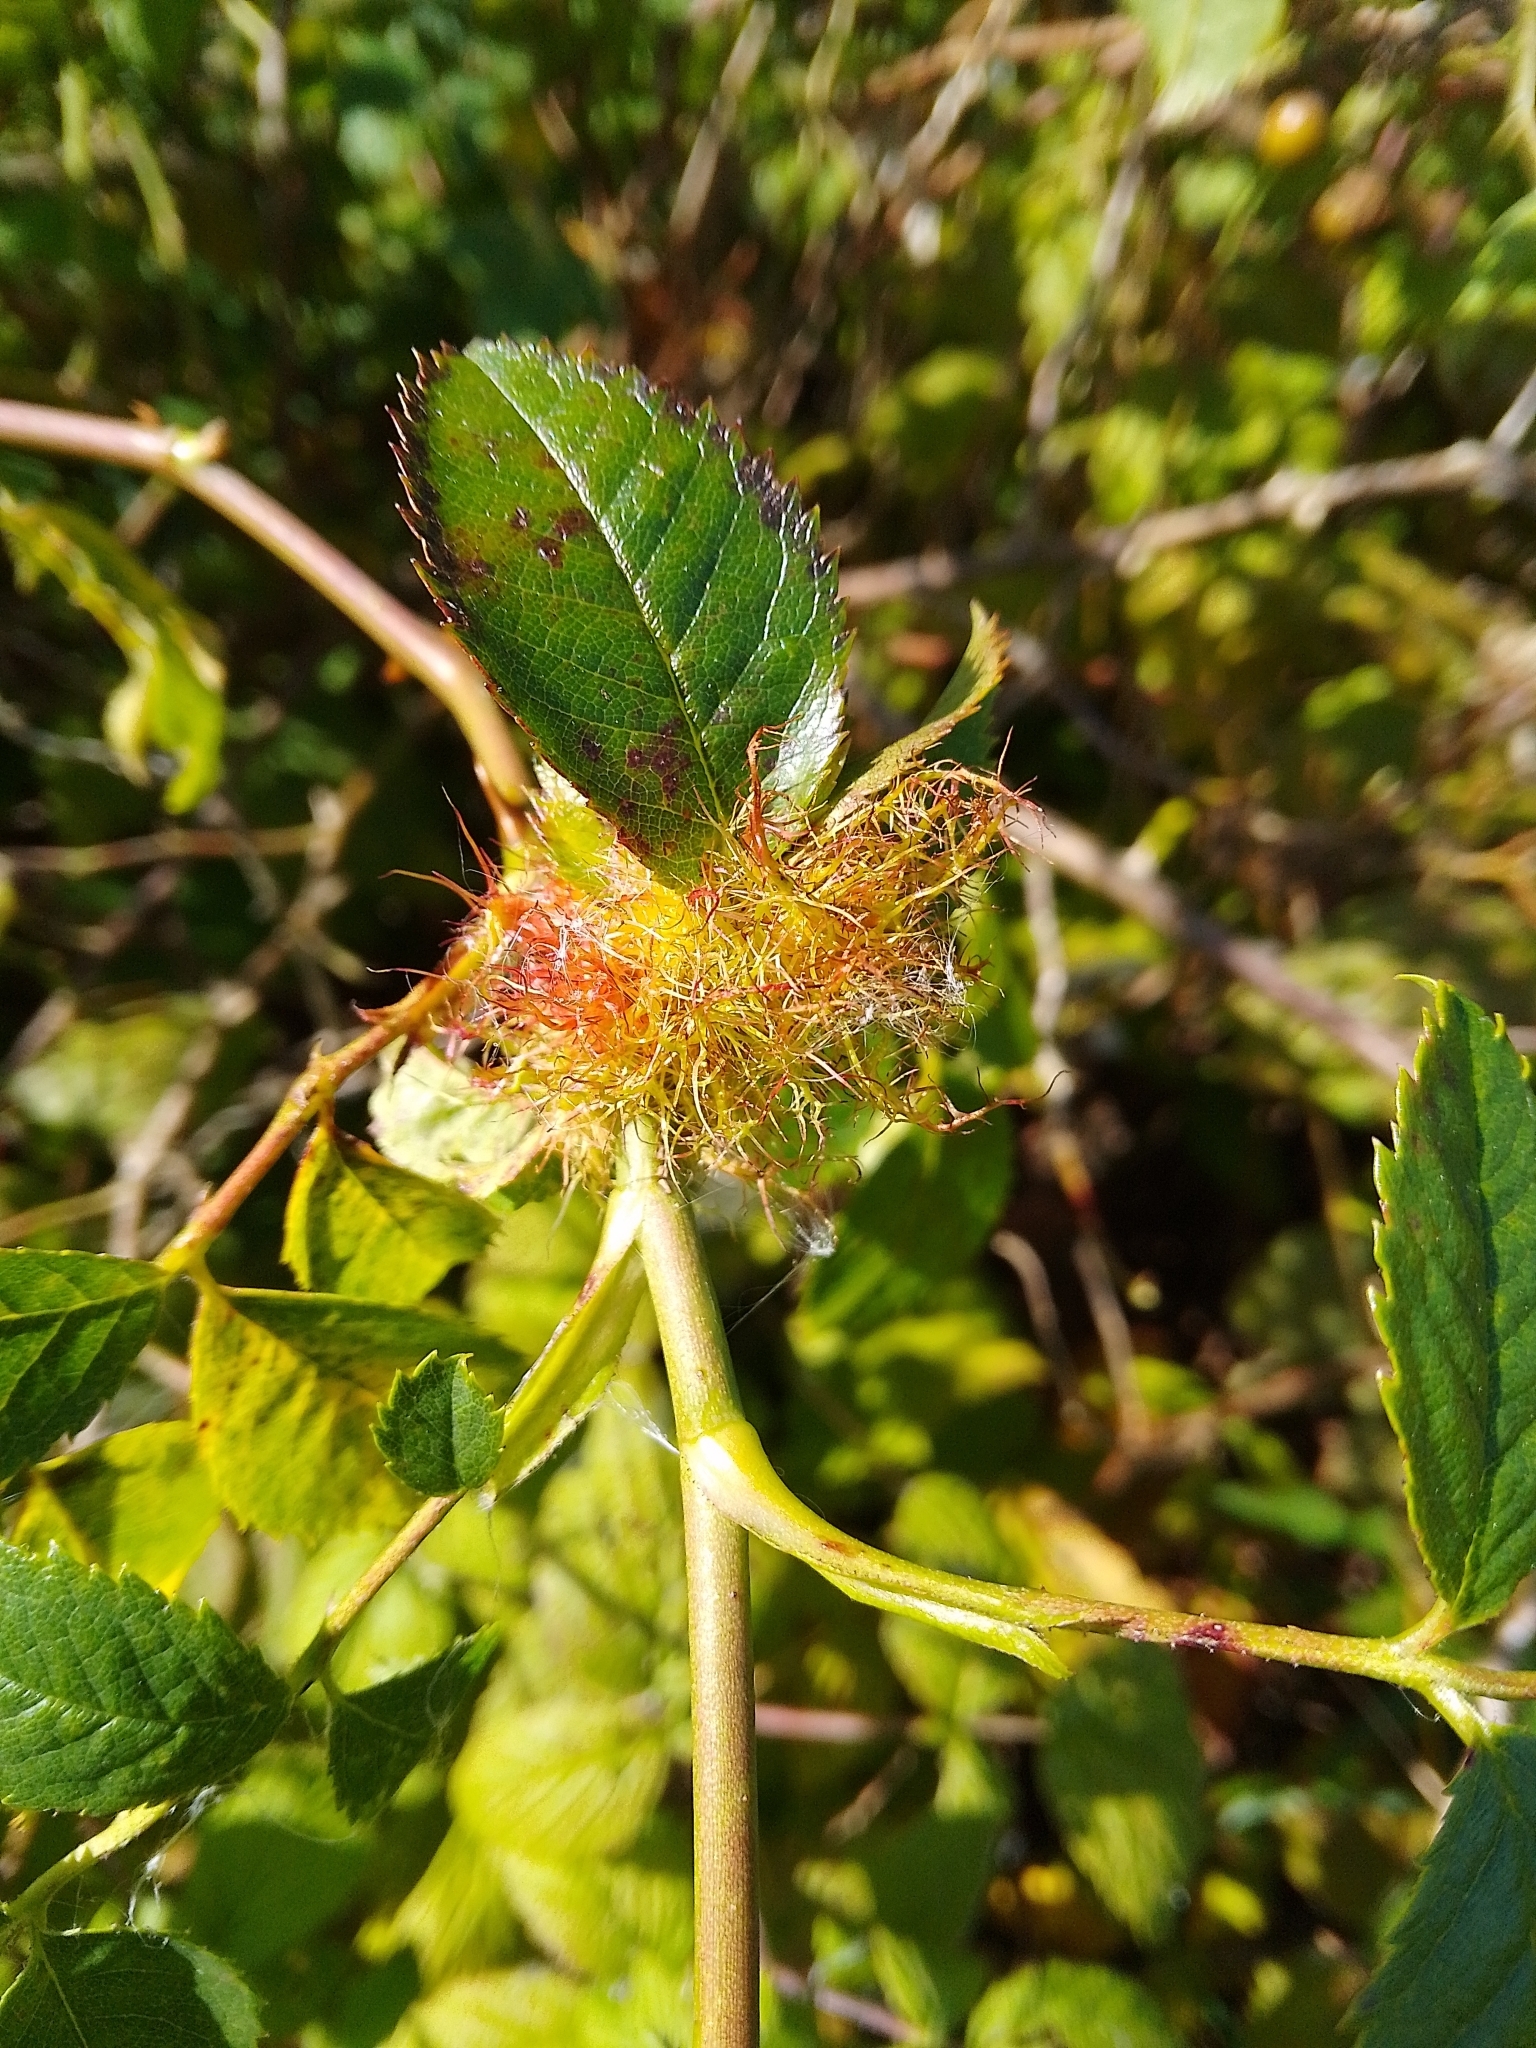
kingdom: Animalia
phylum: Arthropoda
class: Insecta
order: Hymenoptera
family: Cynipidae
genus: Diplolepis
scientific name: Diplolepis rosae
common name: Bedeguar gall
